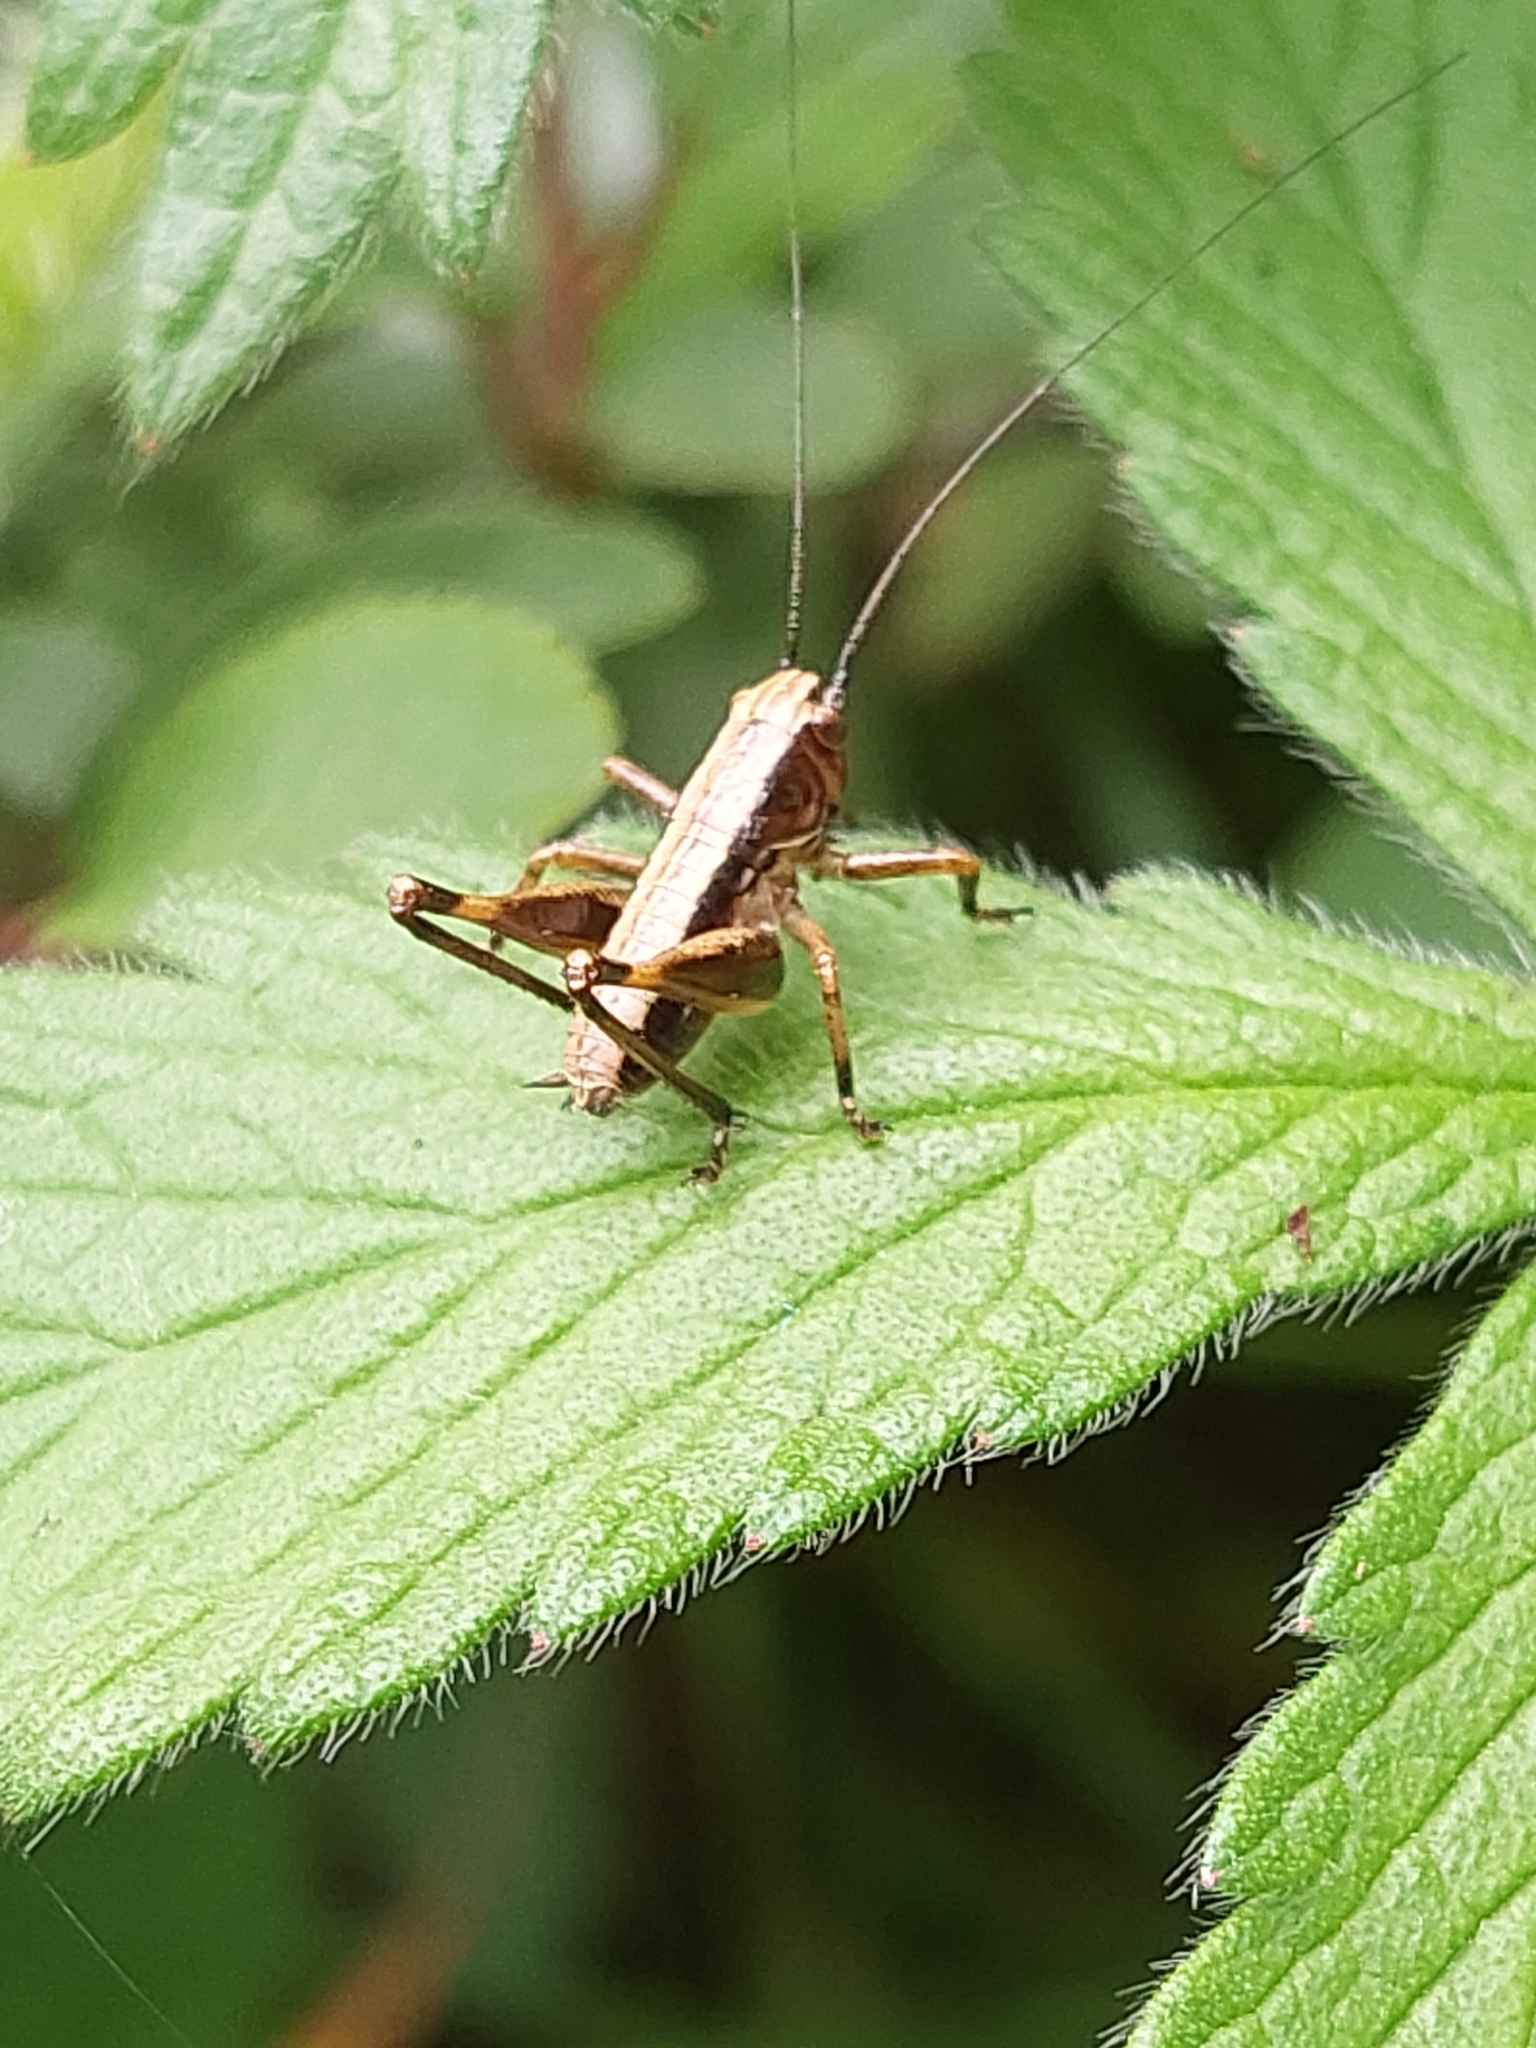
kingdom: Animalia
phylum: Arthropoda
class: Insecta
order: Orthoptera
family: Tettigoniidae
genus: Pholidoptera
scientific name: Pholidoptera griseoaptera
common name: Dark bush-cricket
